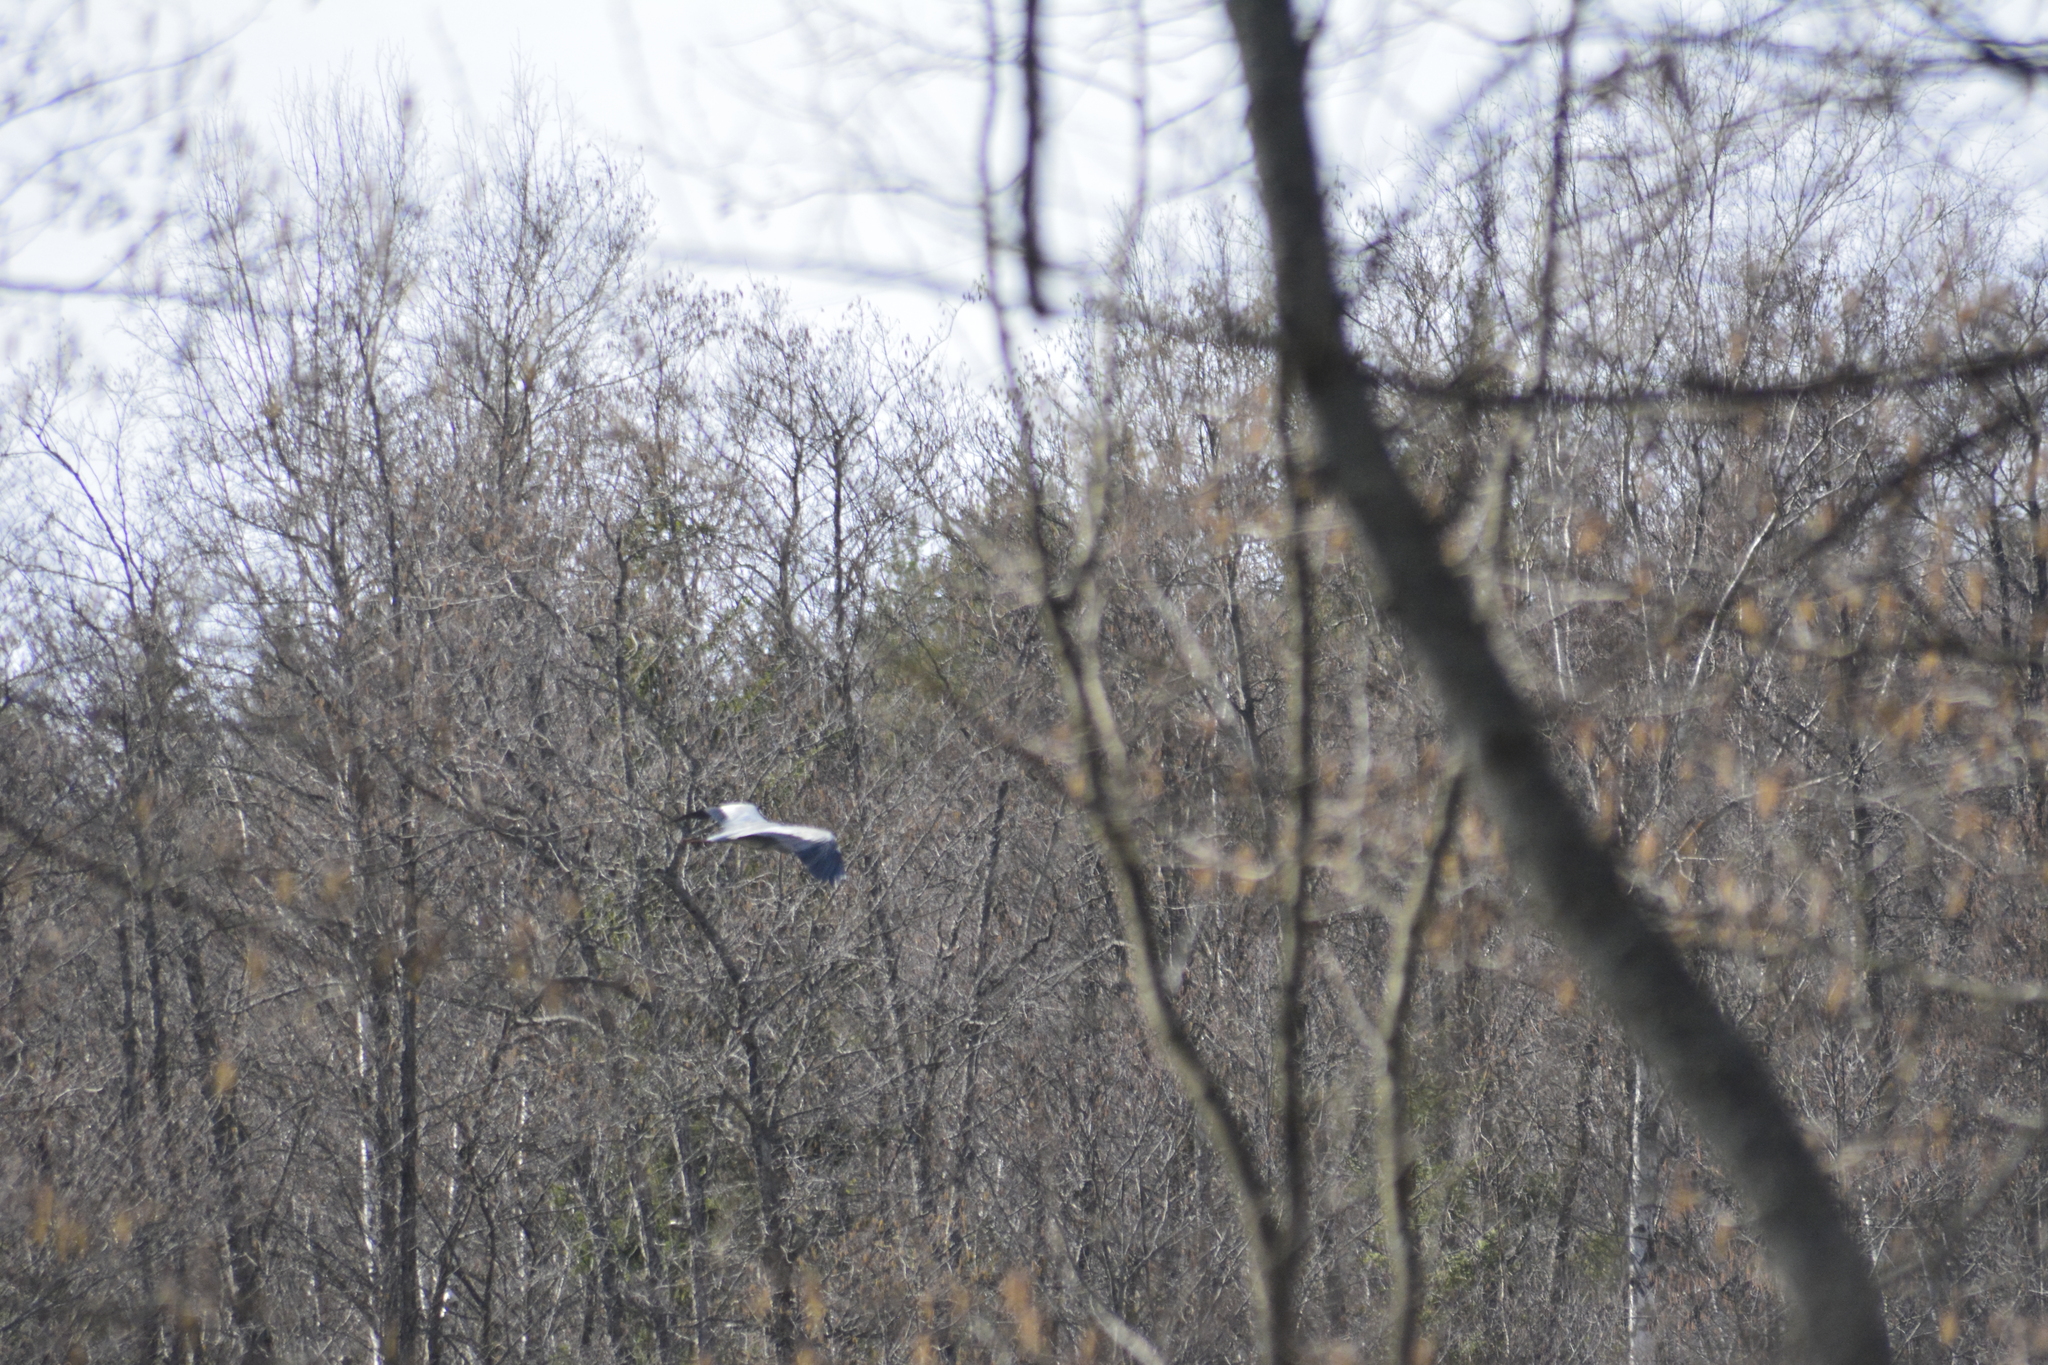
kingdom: Animalia
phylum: Chordata
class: Aves
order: Pelecaniformes
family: Ardeidae
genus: Ardea
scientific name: Ardea cinerea
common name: Grey heron
